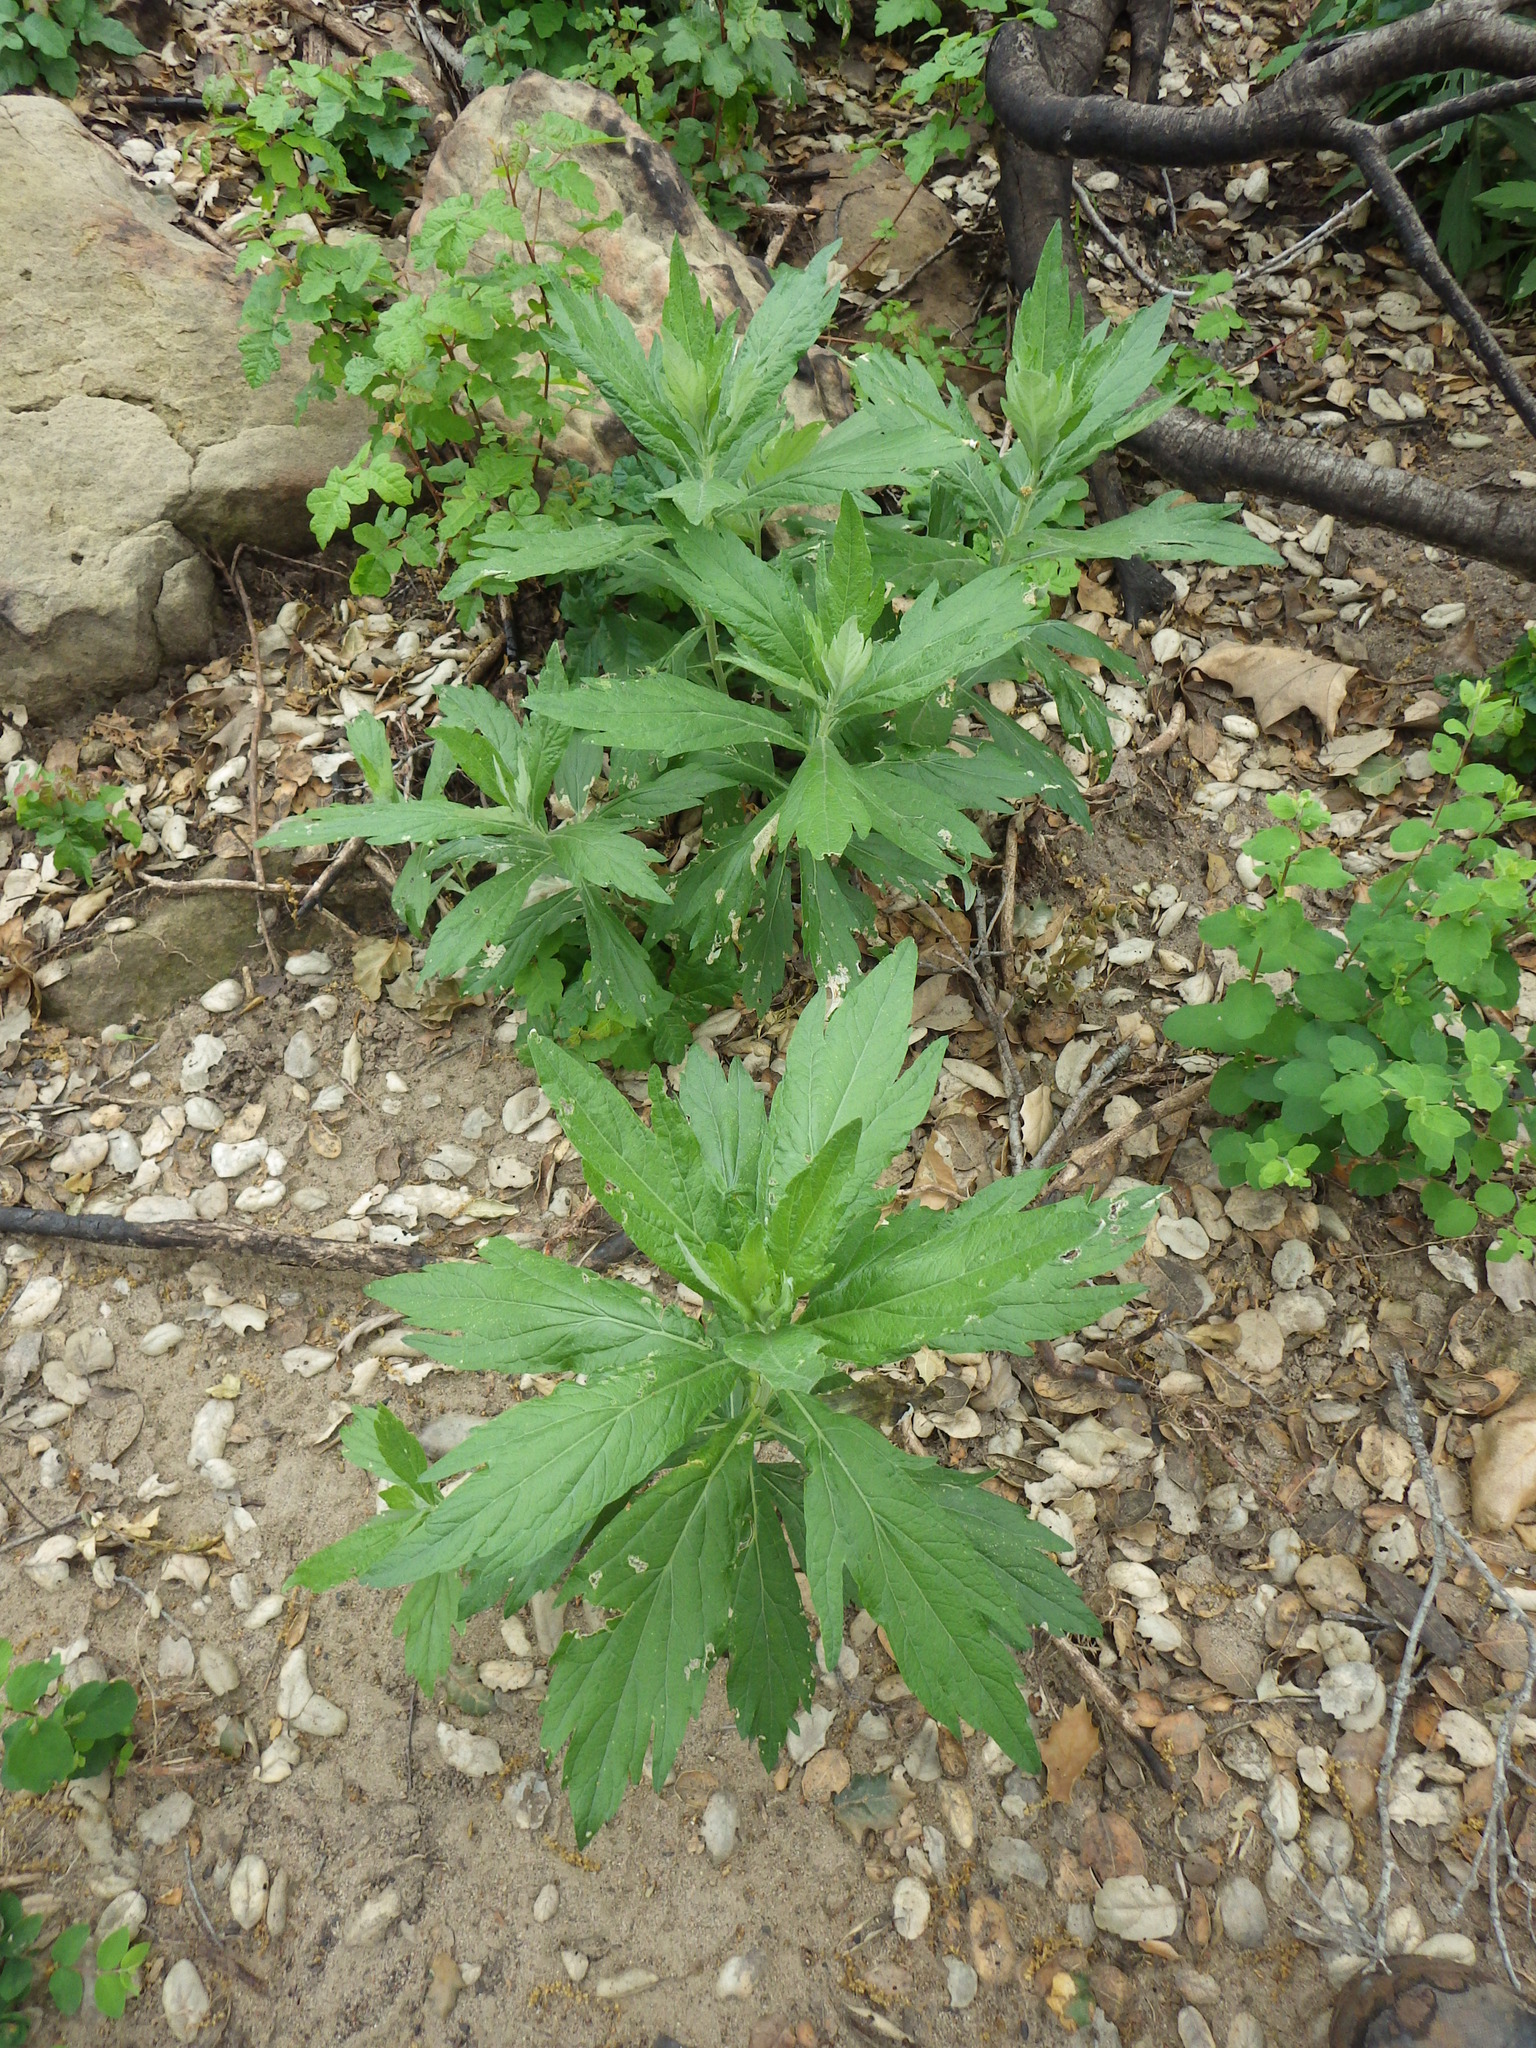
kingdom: Plantae
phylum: Tracheophyta
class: Magnoliopsida
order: Asterales
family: Asteraceae
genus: Artemisia
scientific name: Artemisia douglasiana
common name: Northwest mugwort
